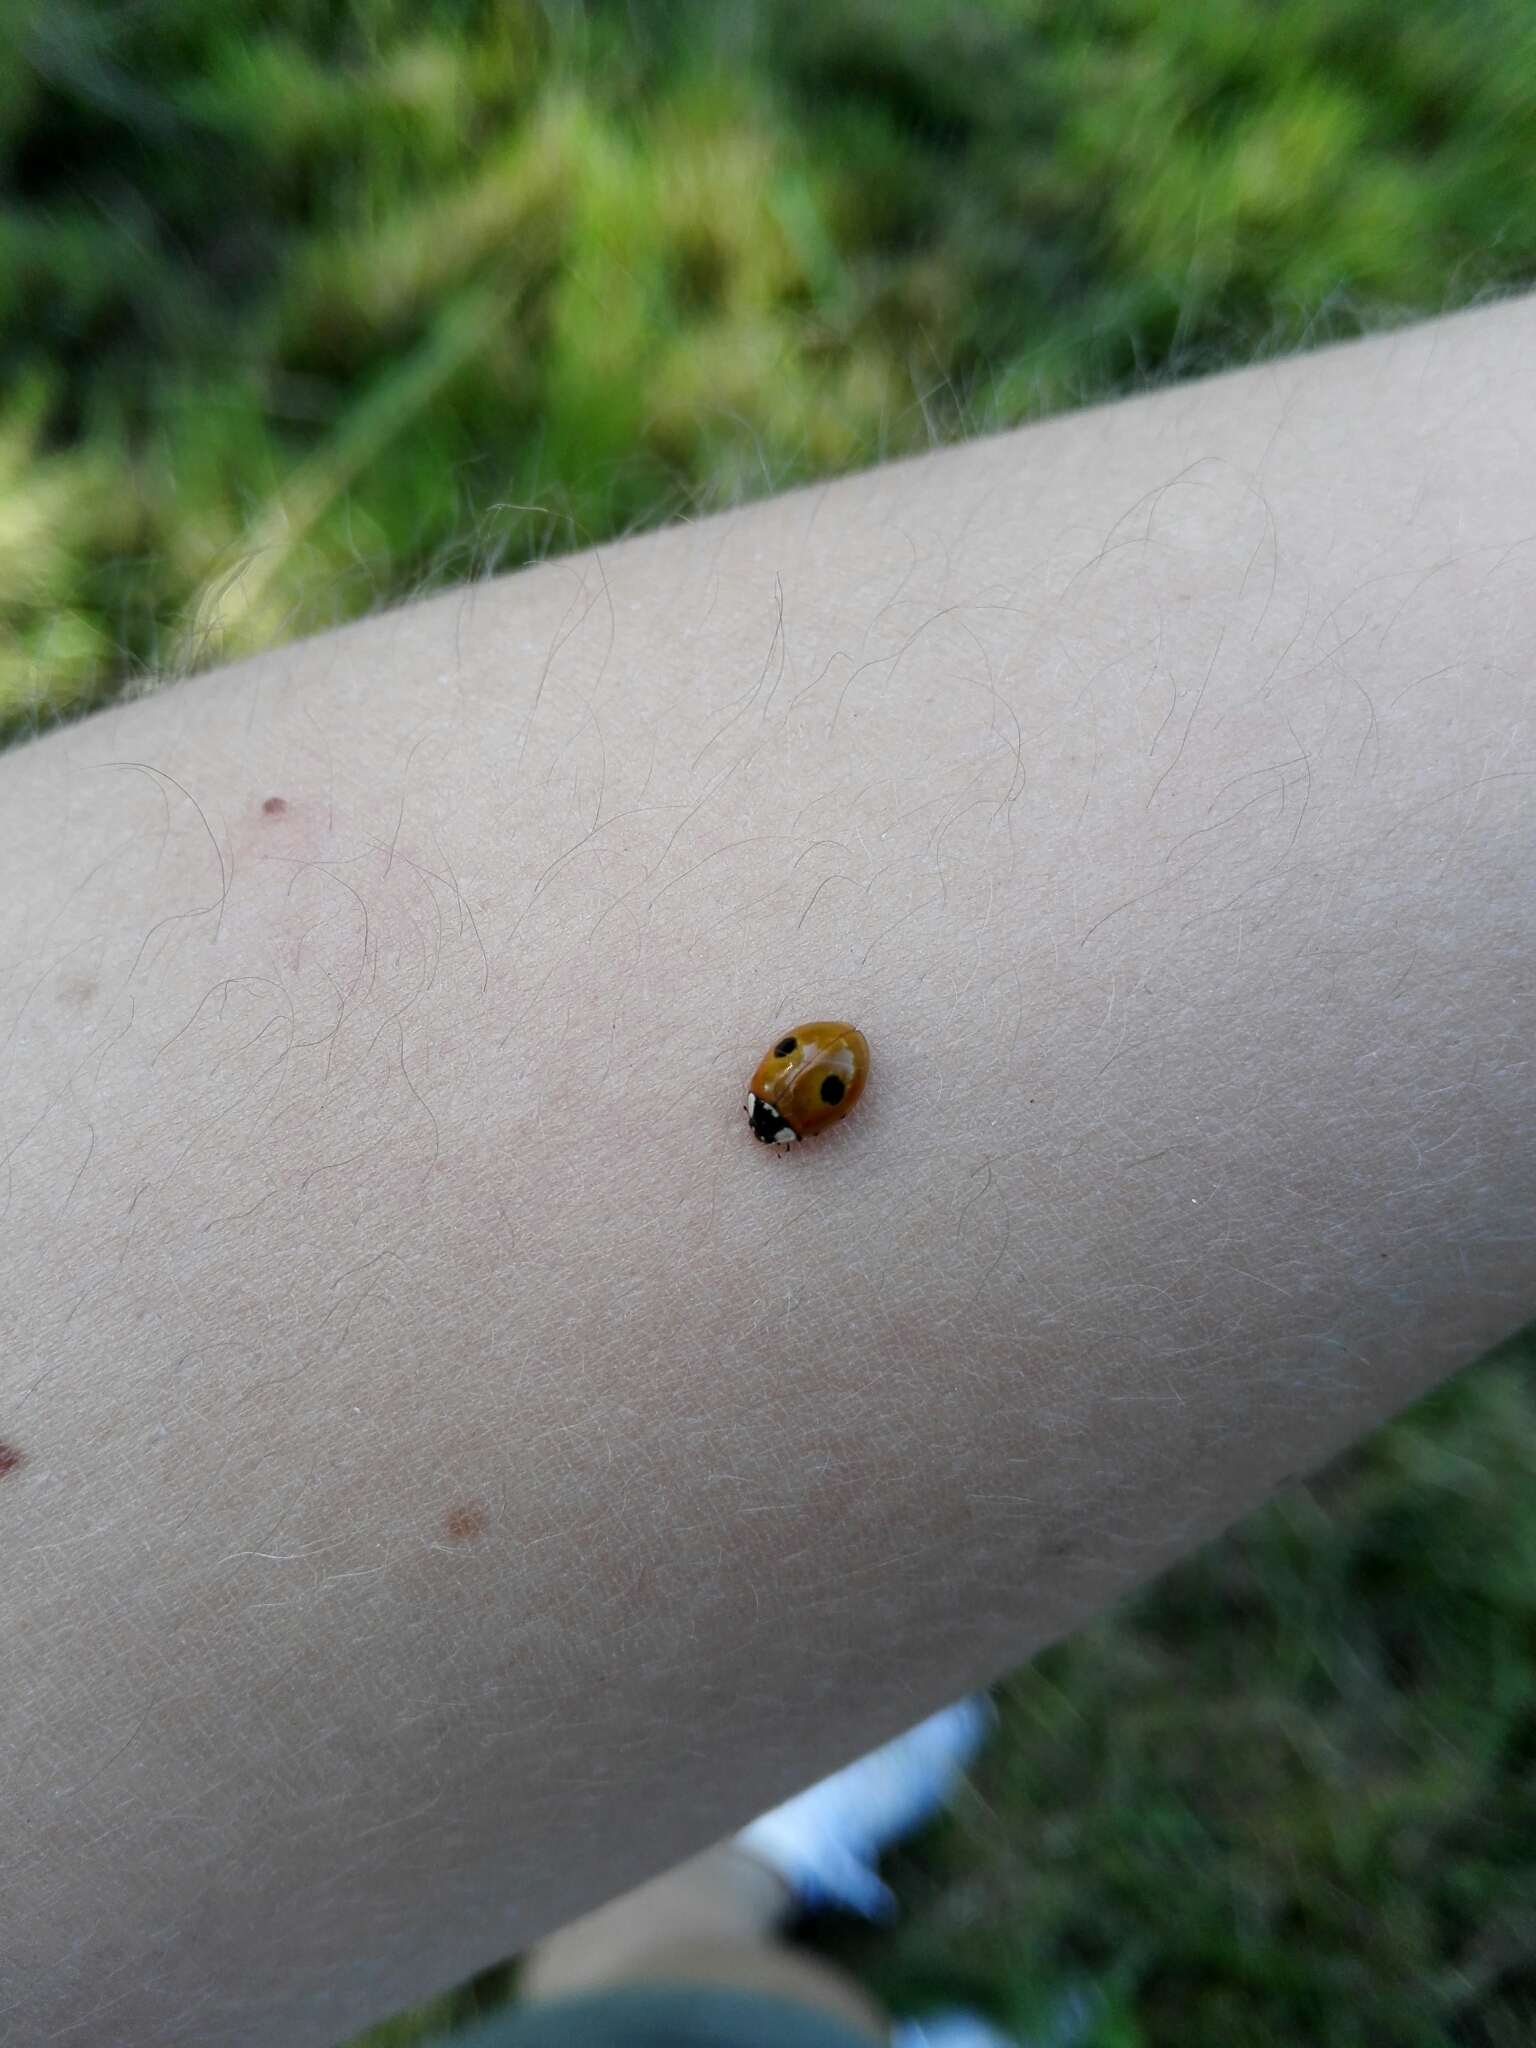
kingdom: Animalia
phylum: Arthropoda
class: Insecta
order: Coleoptera
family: Coccinellidae
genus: Adalia
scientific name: Adalia bipunctata
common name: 2-spot ladybird
